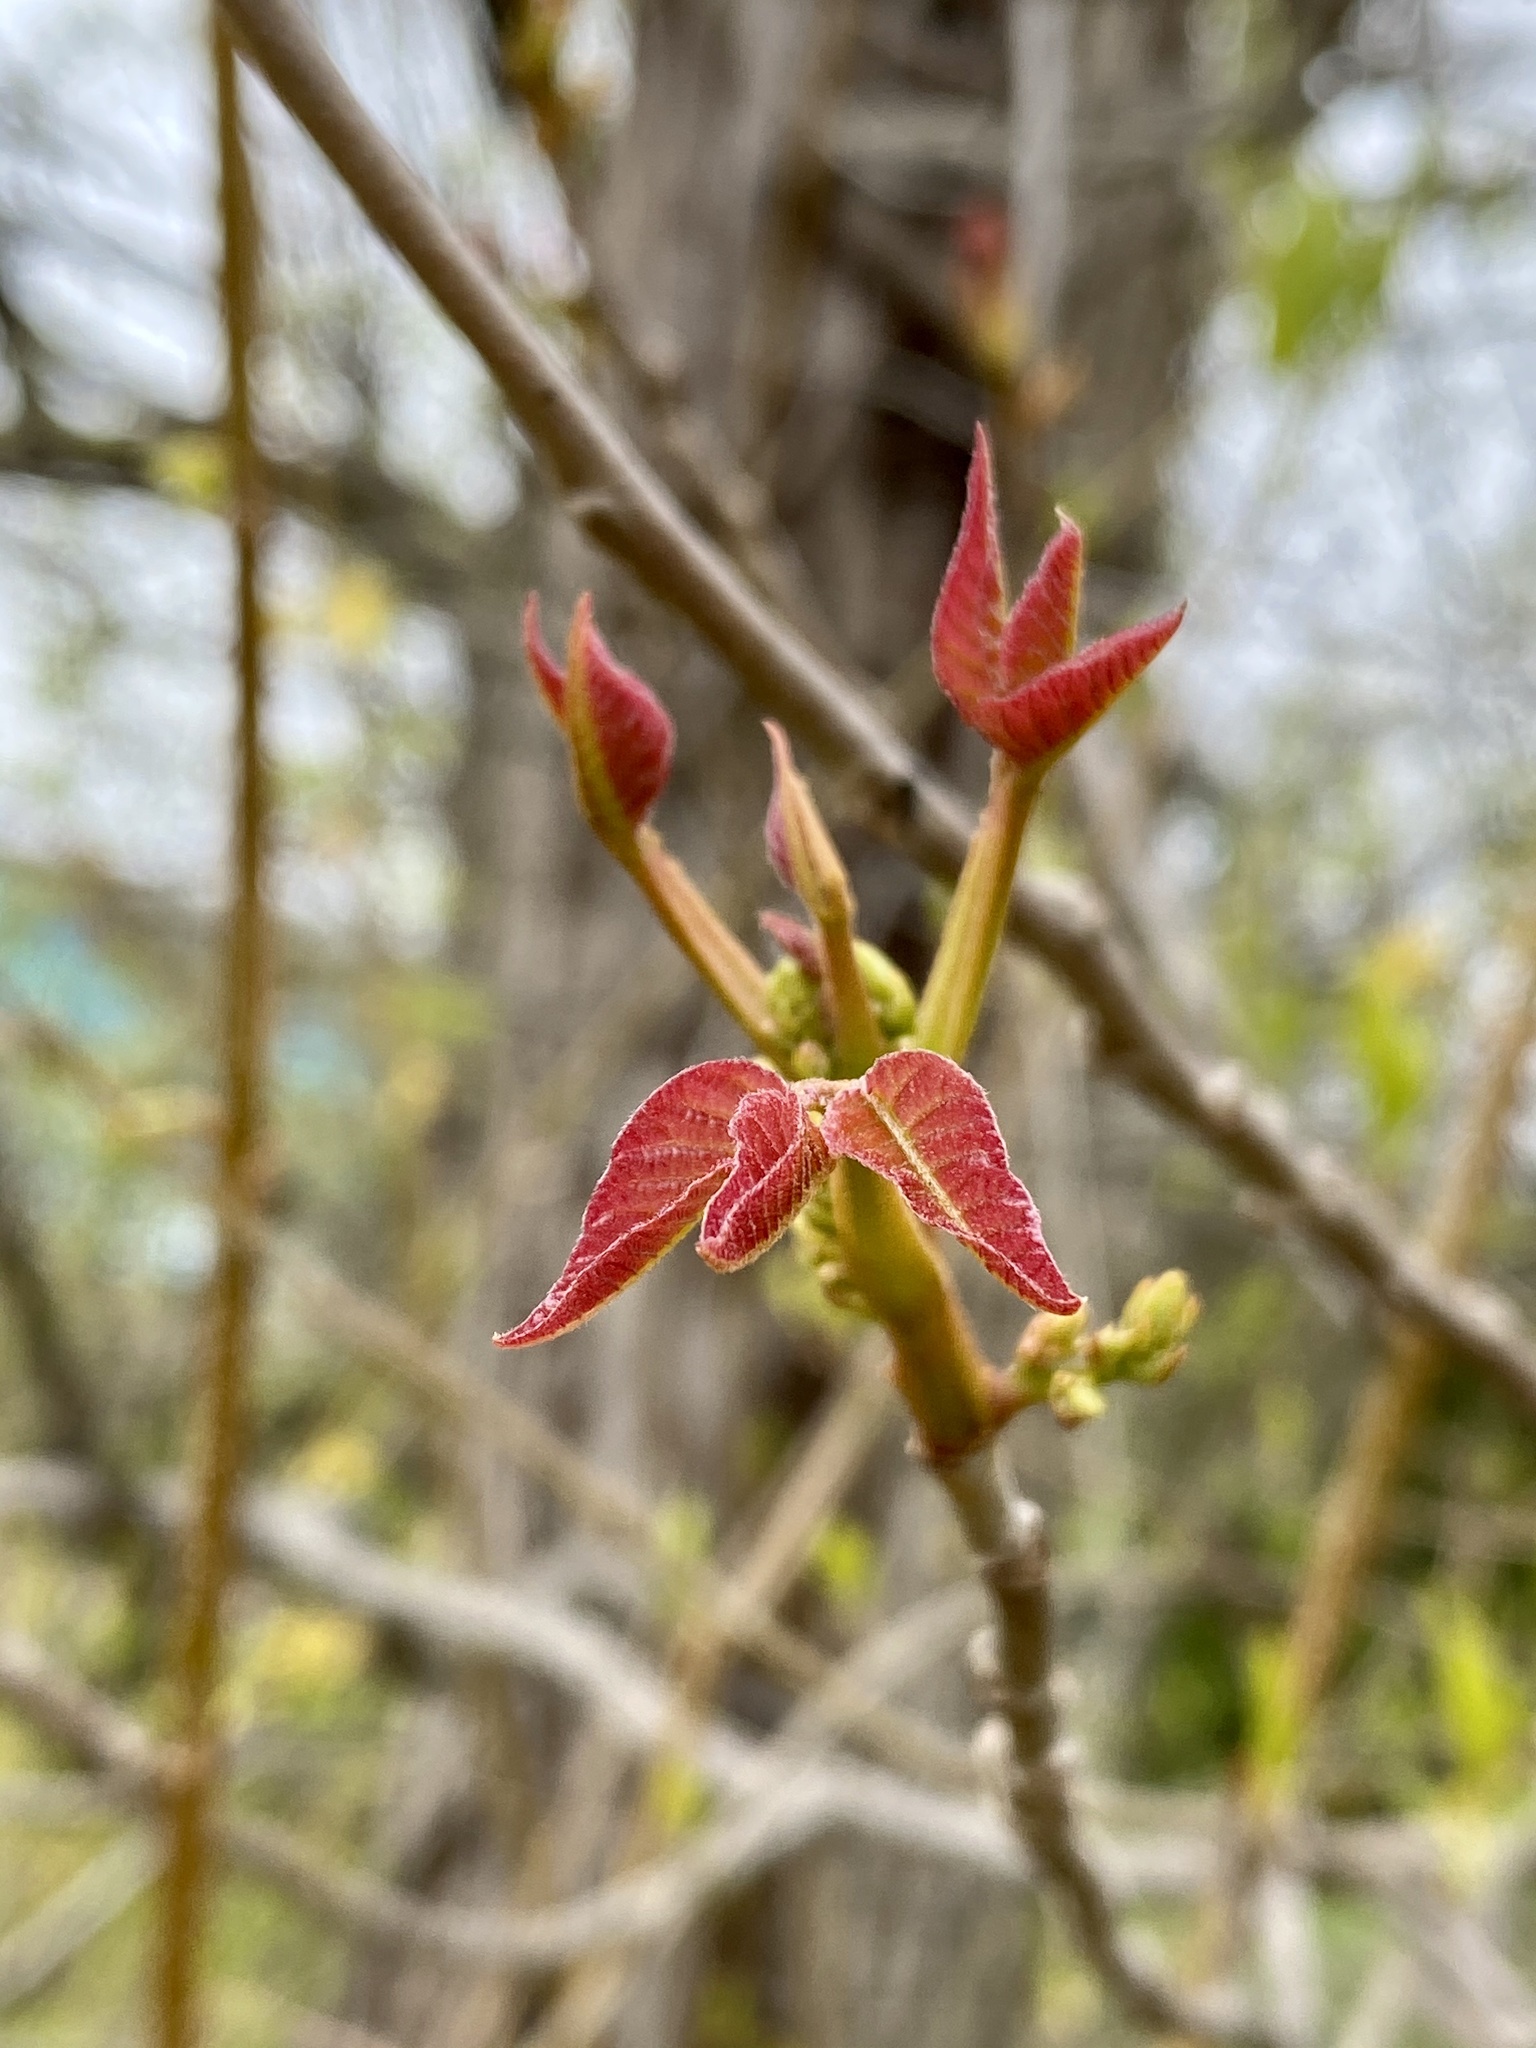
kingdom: Plantae
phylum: Tracheophyta
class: Magnoliopsida
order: Sapindales
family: Anacardiaceae
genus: Toxicodendron
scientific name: Toxicodendron radicans
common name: Poison ivy
